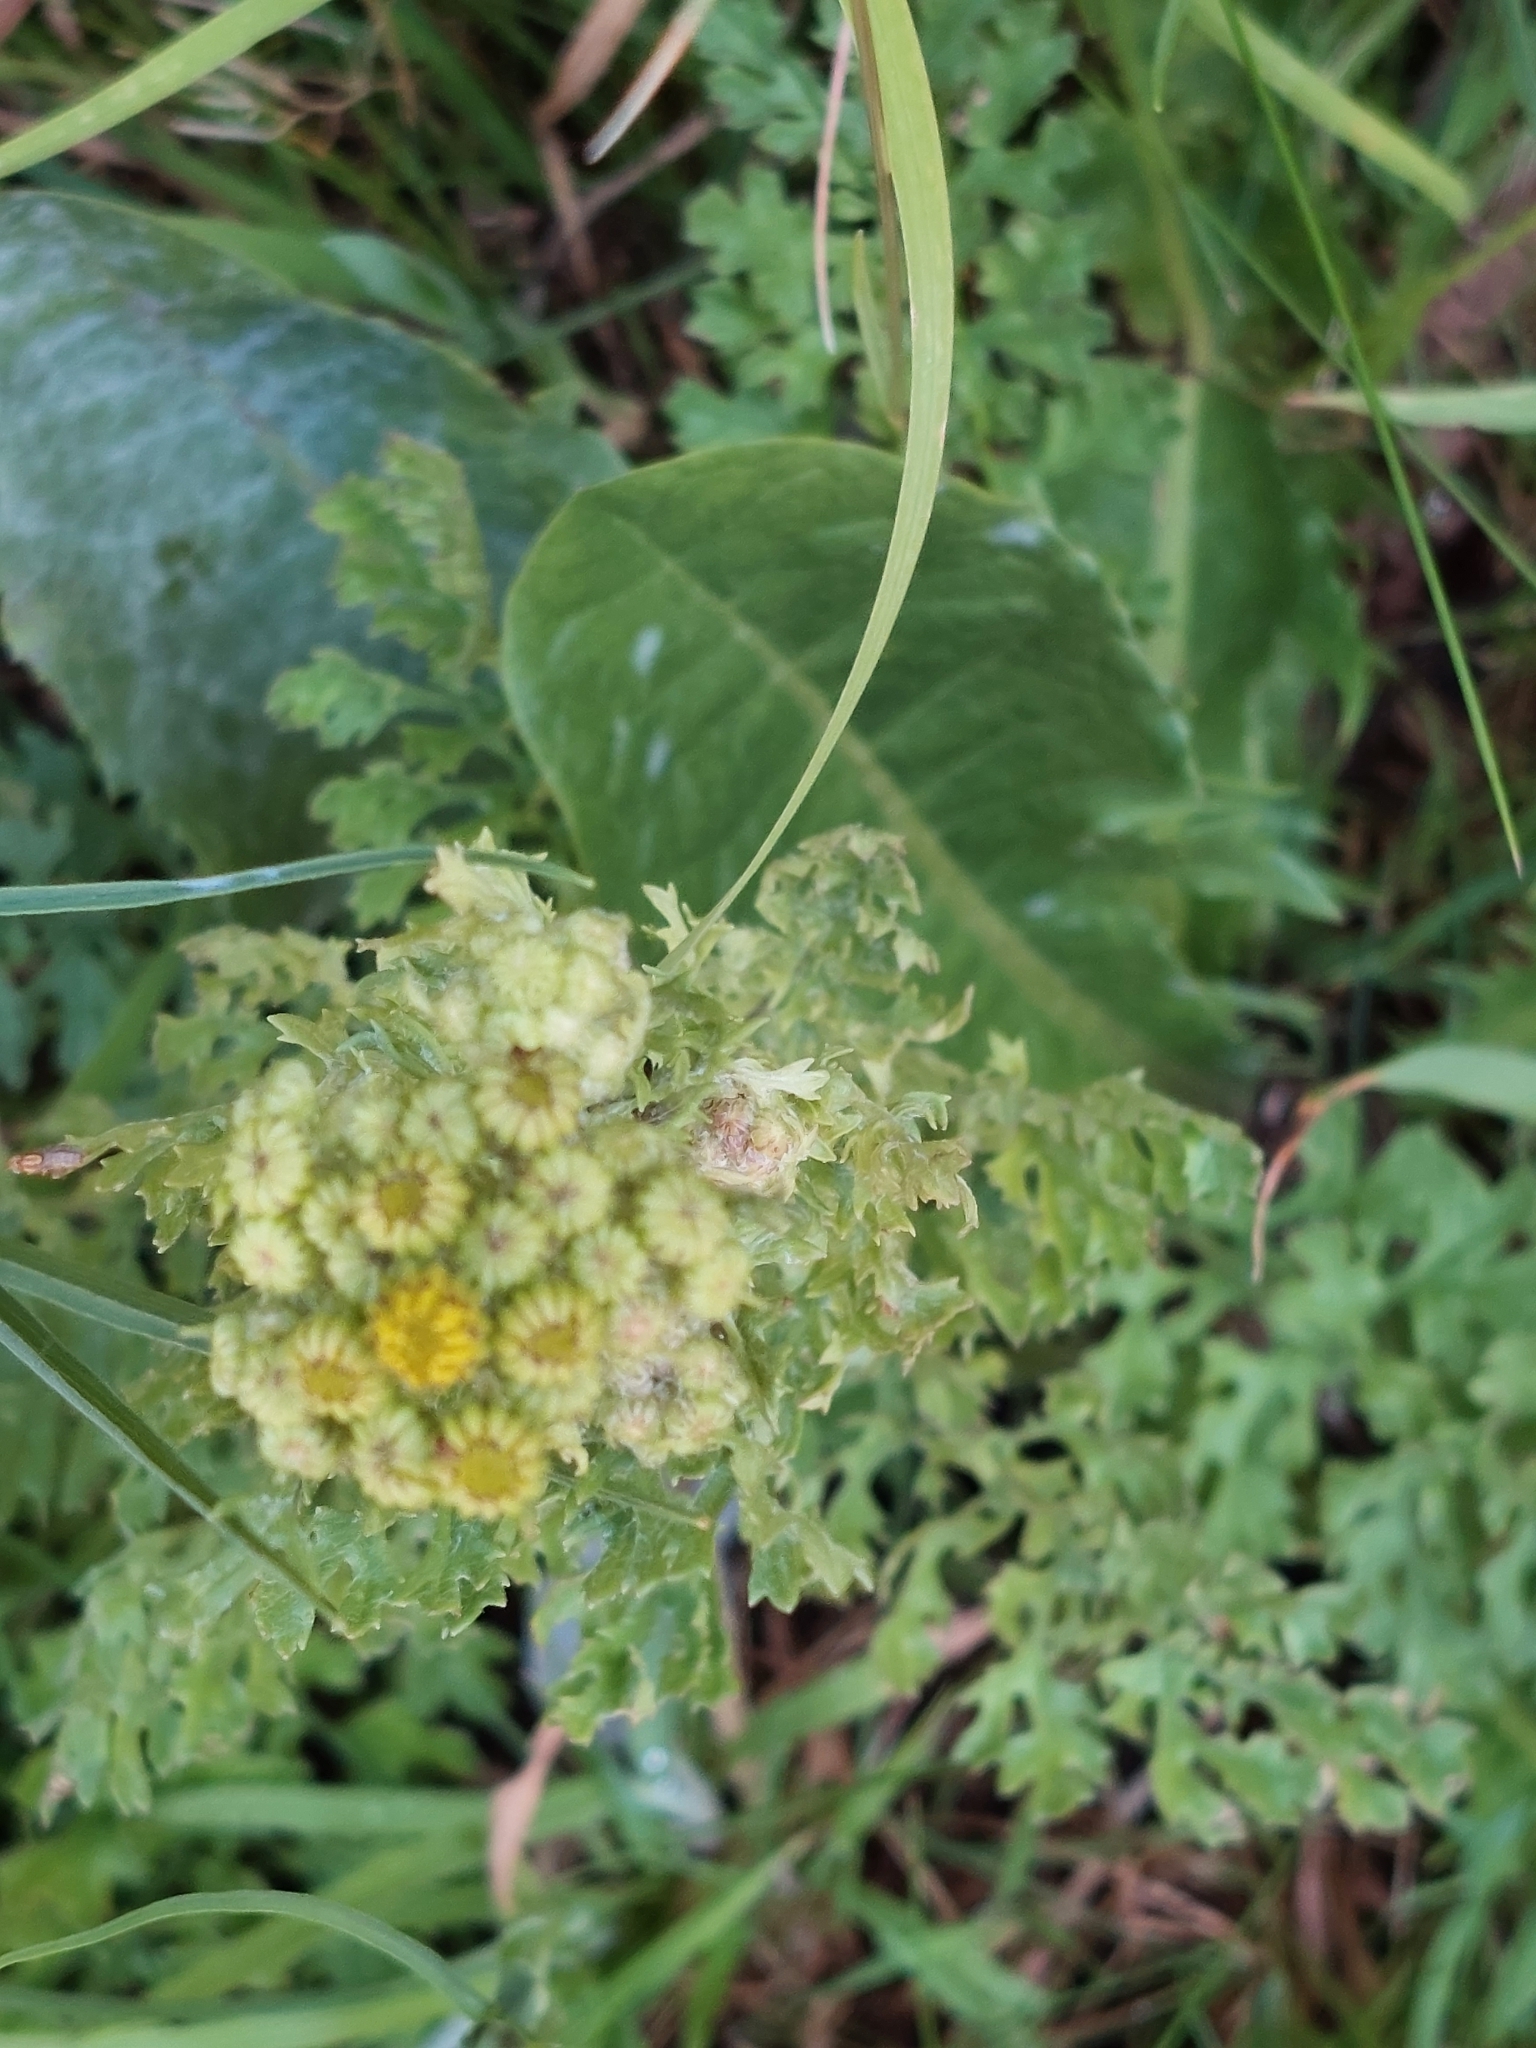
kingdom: Plantae
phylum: Tracheophyta
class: Magnoliopsida
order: Asterales
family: Asteraceae
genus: Jacobaea
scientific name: Jacobaea vulgaris
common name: Stinking willie
